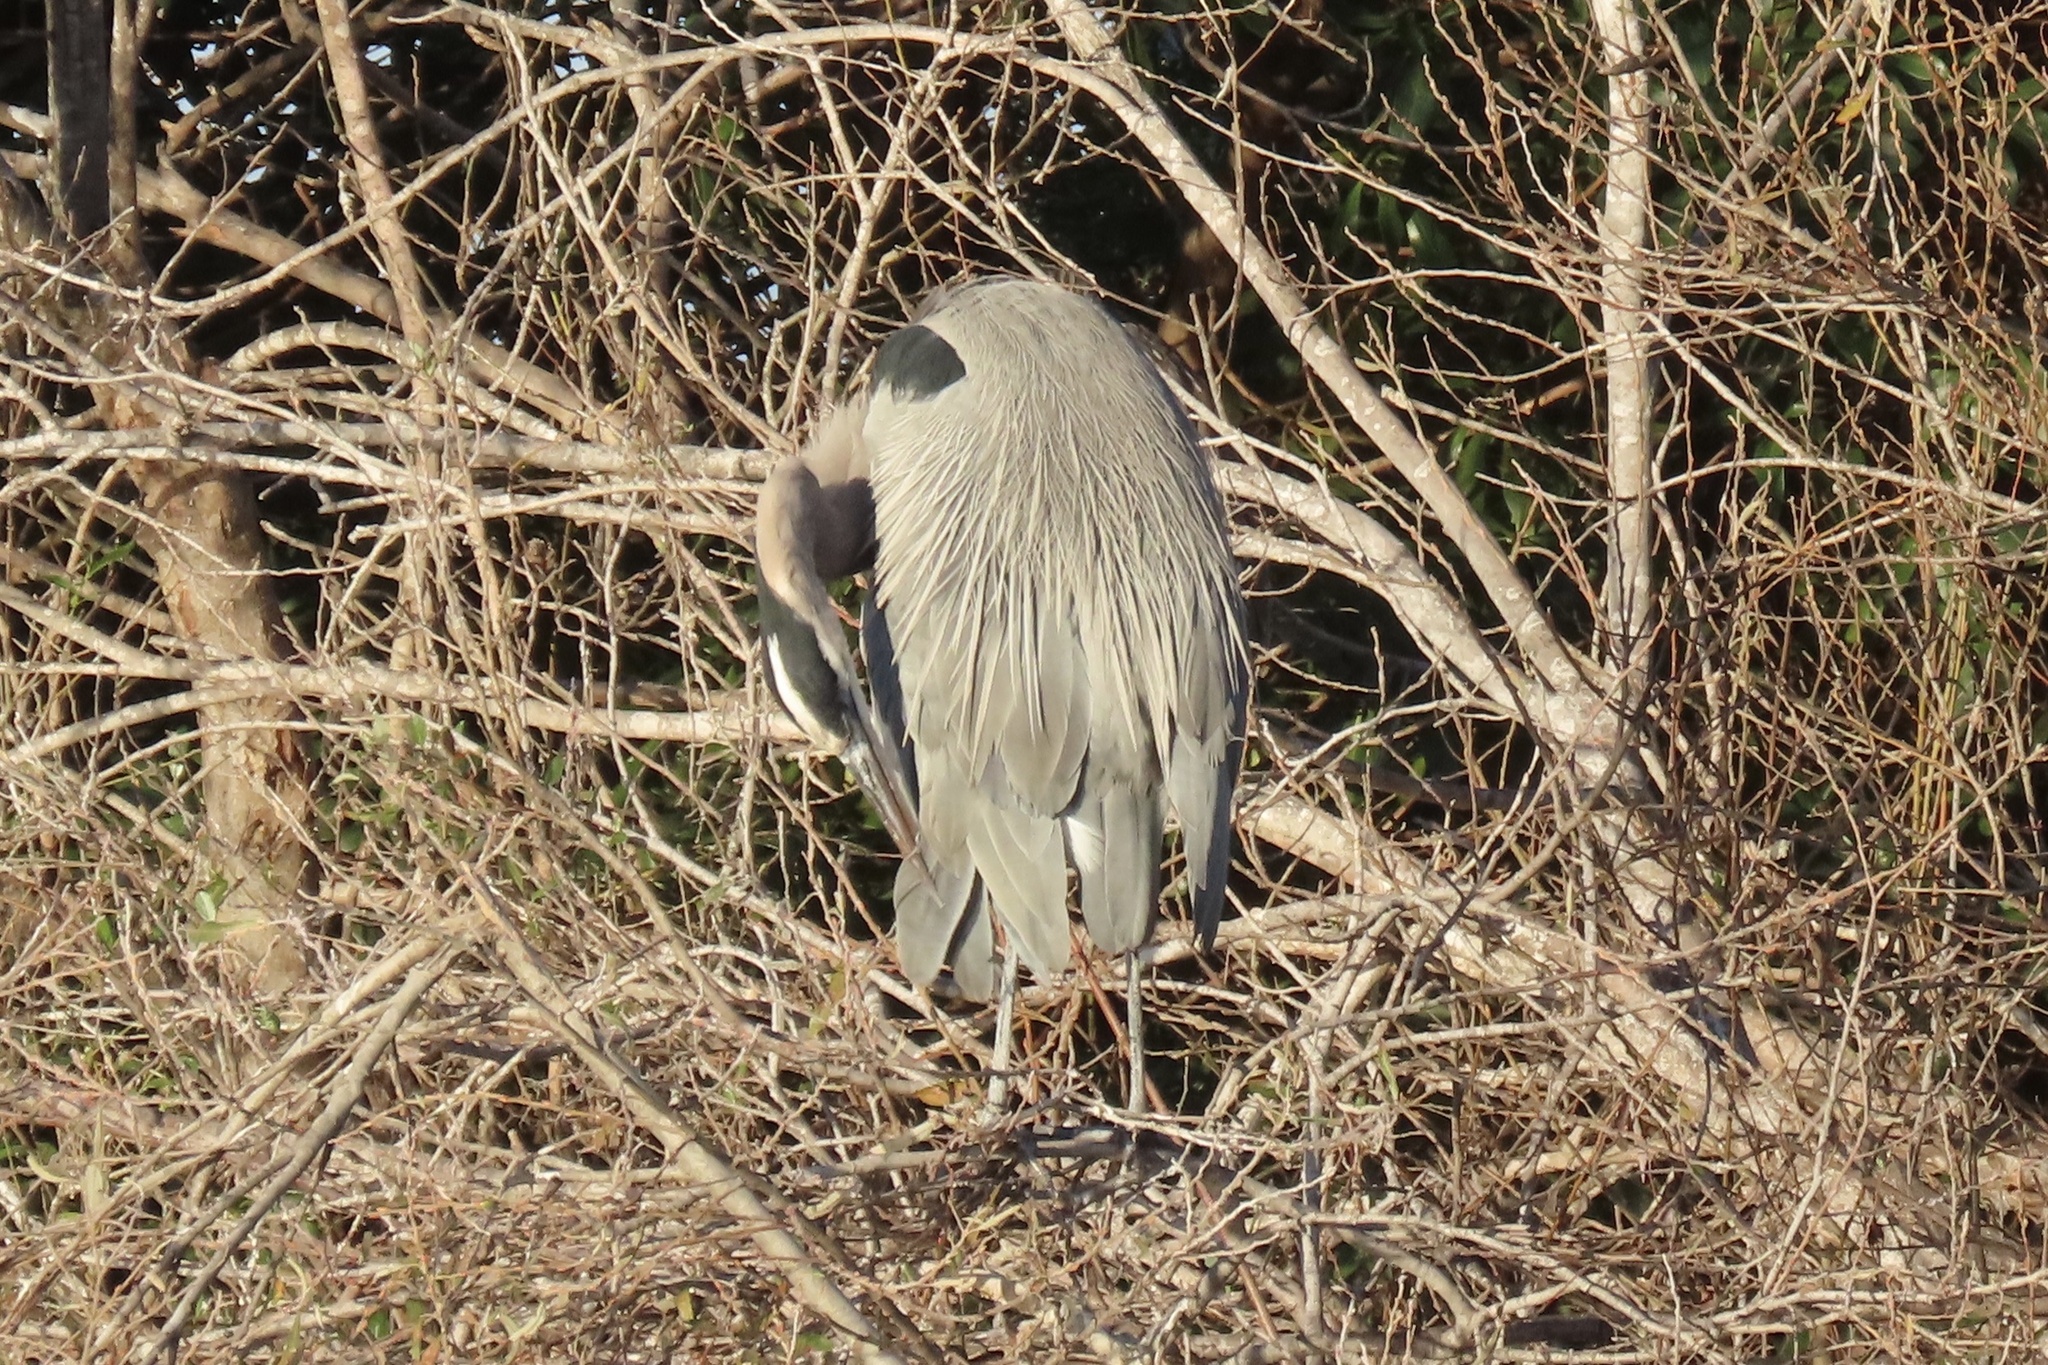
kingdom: Animalia
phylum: Chordata
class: Aves
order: Pelecaniformes
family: Ardeidae
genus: Ardea
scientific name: Ardea herodias
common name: Great blue heron
